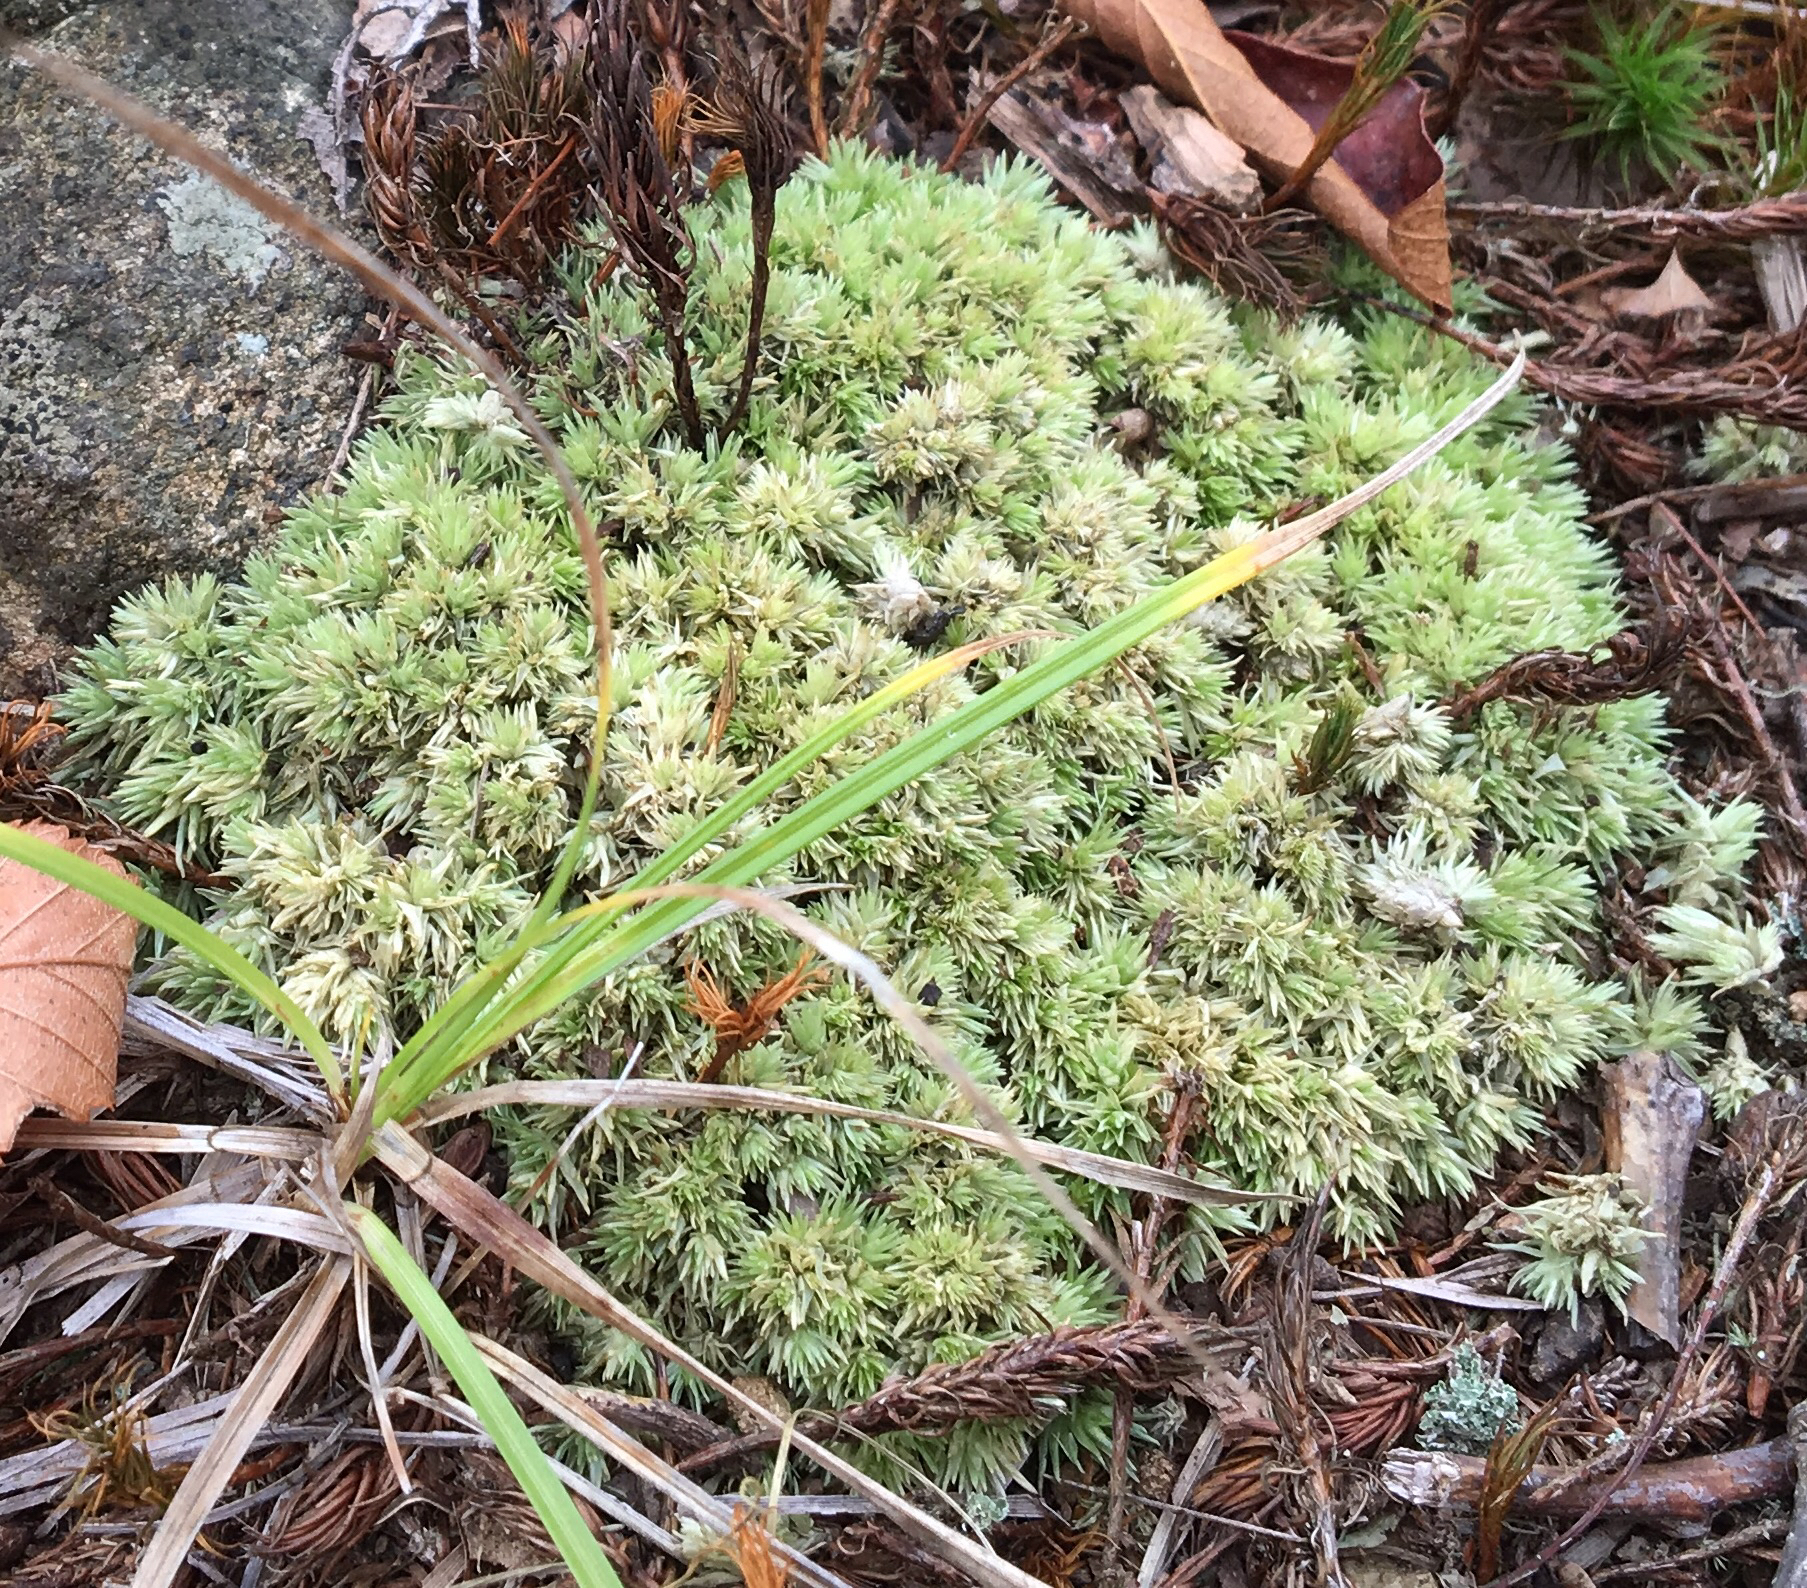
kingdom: Plantae
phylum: Bryophyta
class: Bryopsida
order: Dicranales
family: Leucobryaceae
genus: Leucobryum
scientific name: Leucobryum glaucum
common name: Large white-moss
